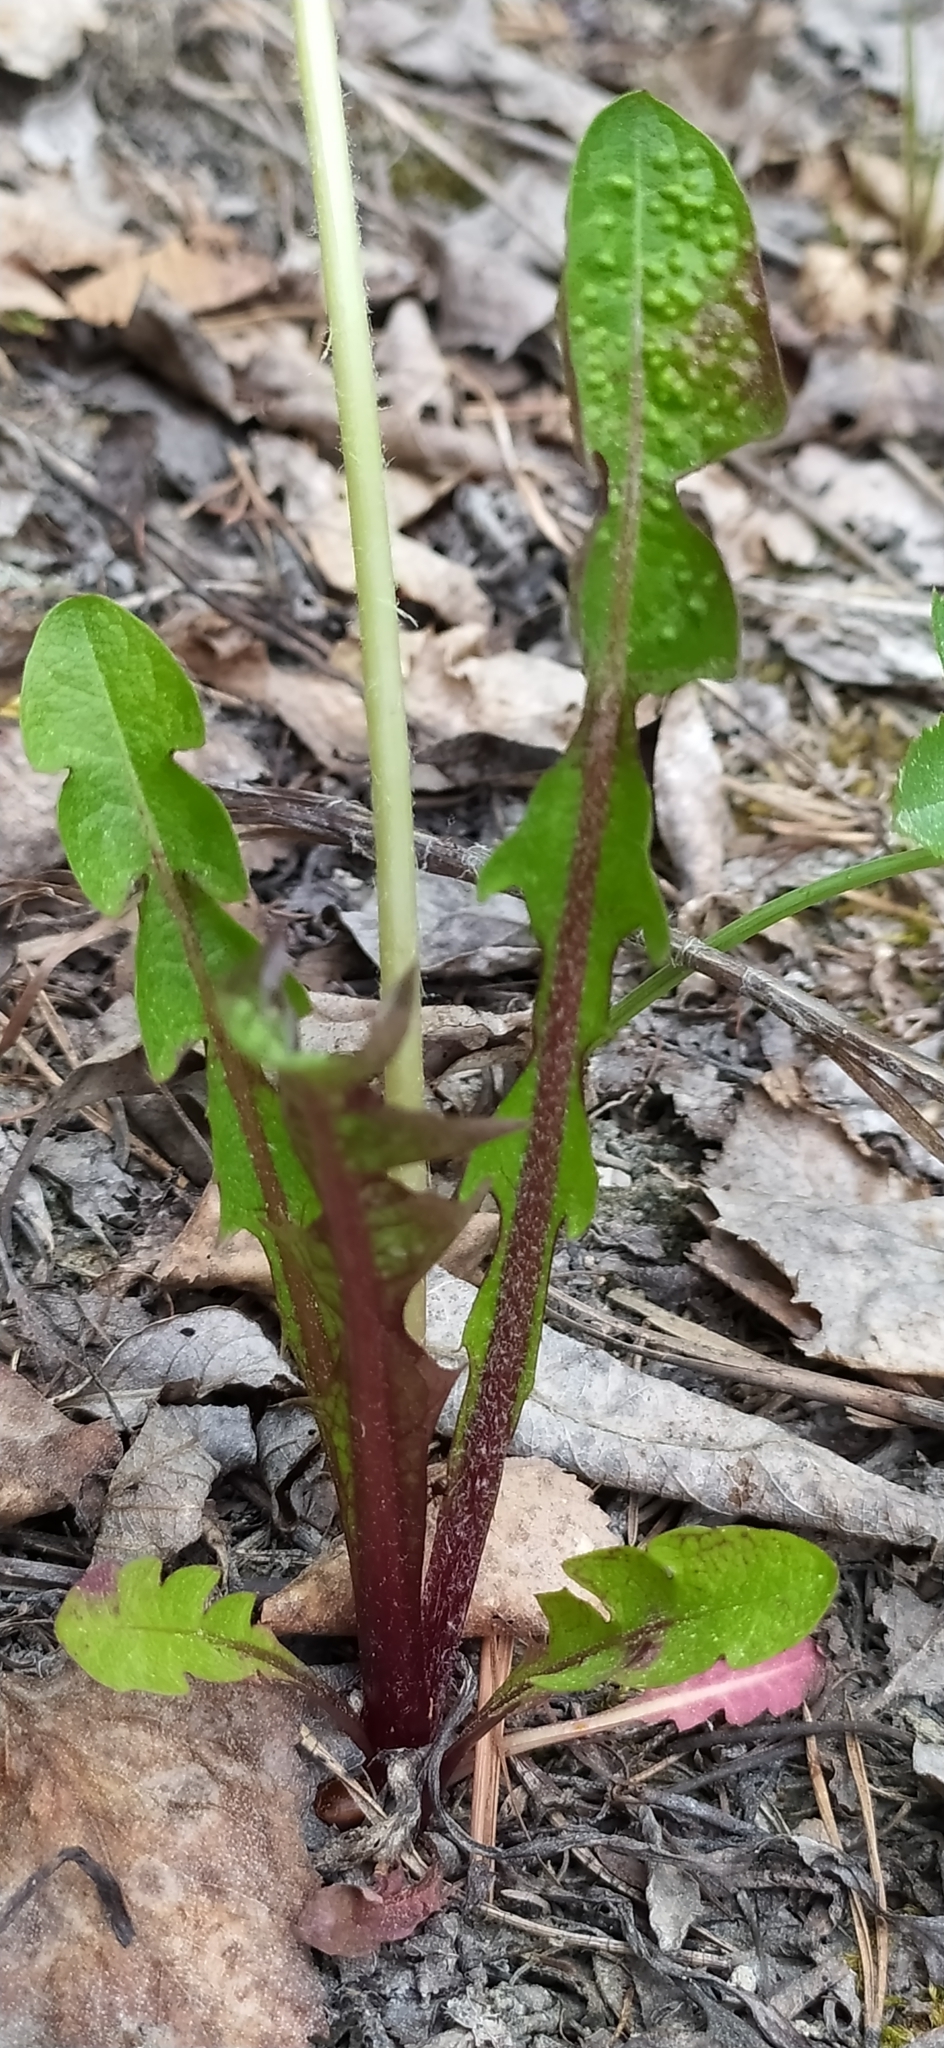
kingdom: Plantae
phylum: Tracheophyta
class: Magnoliopsida
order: Asterales
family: Asteraceae
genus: Taraxacum
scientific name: Taraxacum officinale
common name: Common dandelion
